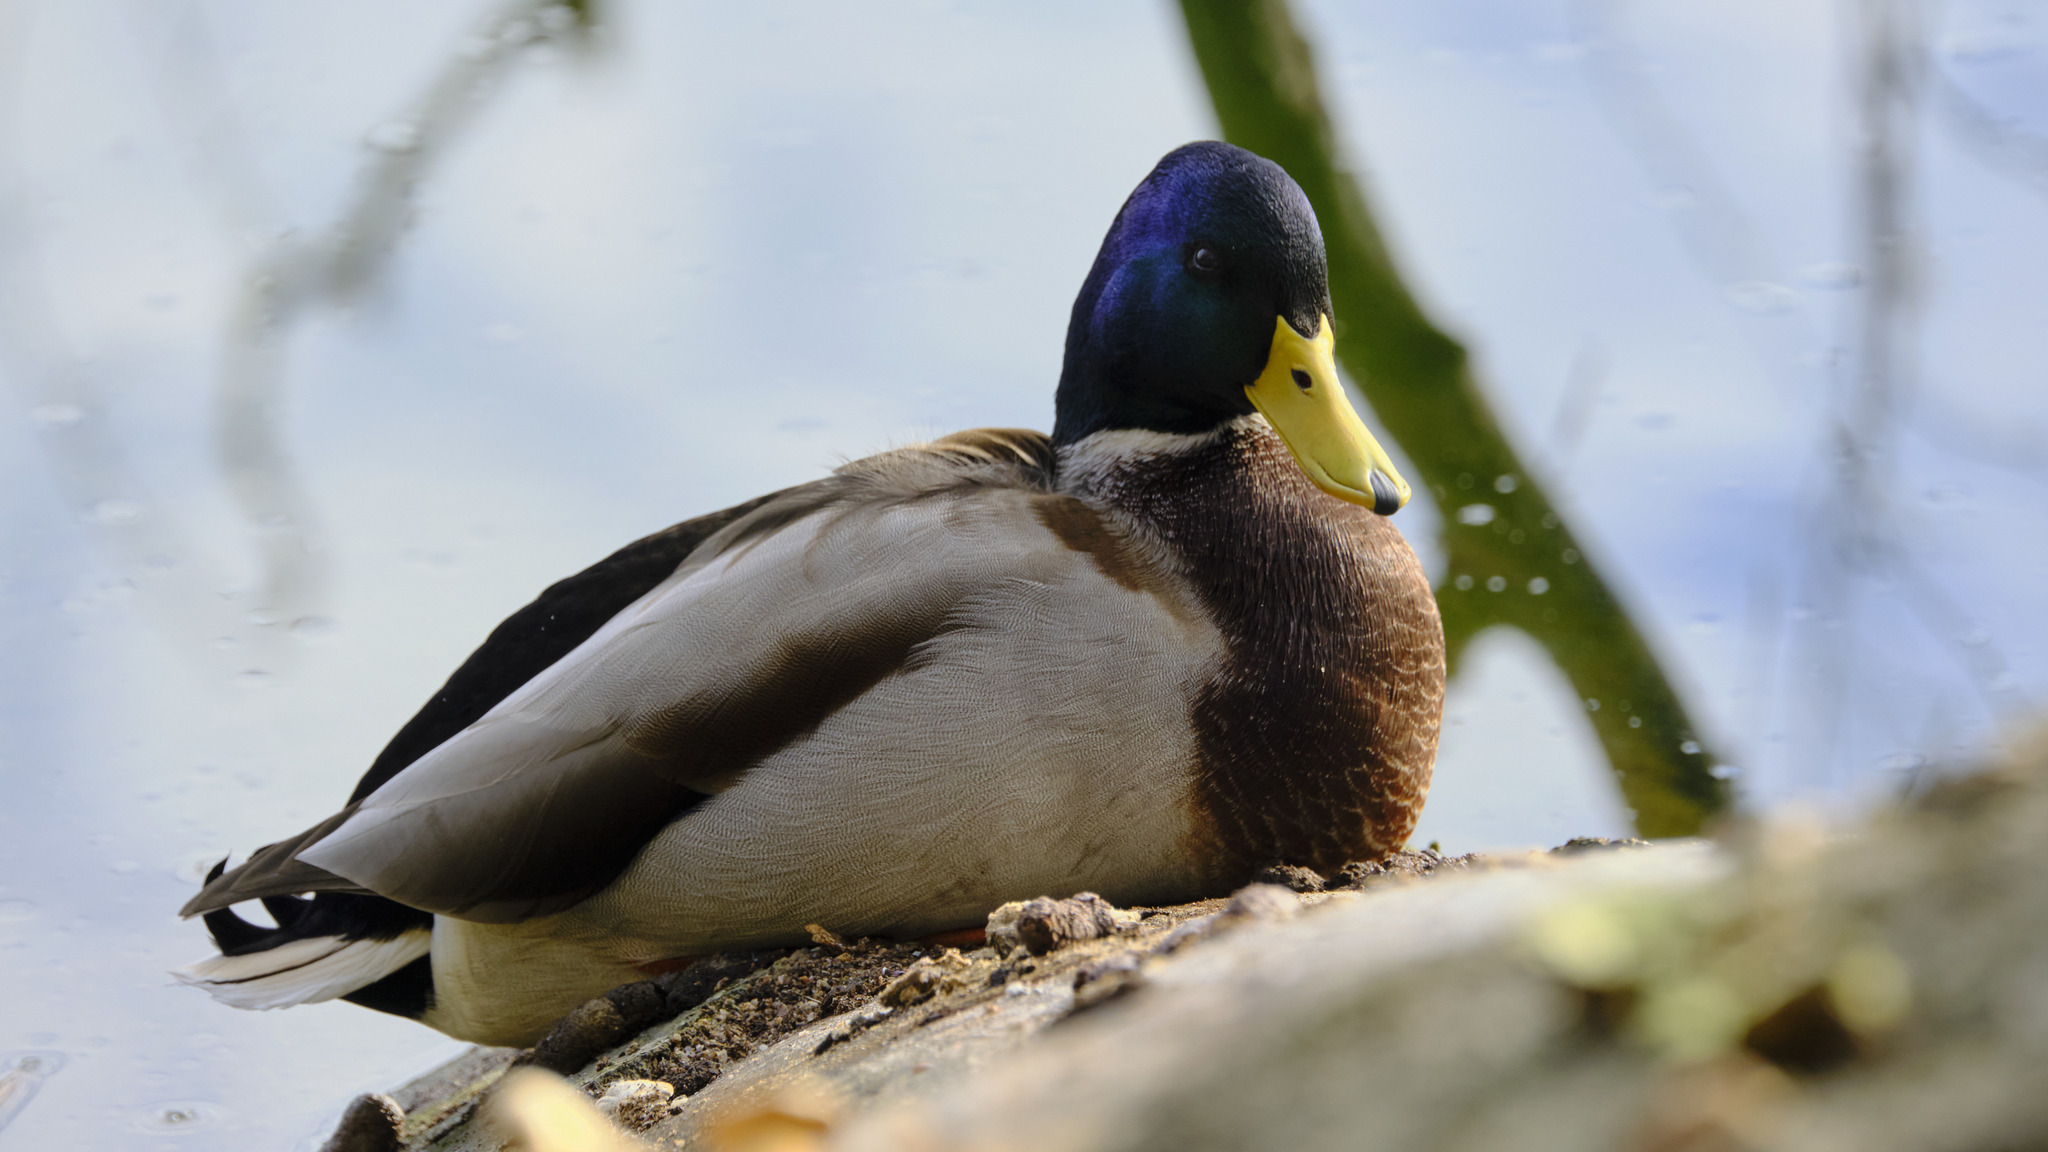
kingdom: Animalia
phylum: Chordata
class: Aves
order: Anseriformes
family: Anatidae
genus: Anas
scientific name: Anas platyrhynchos
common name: Mallard
